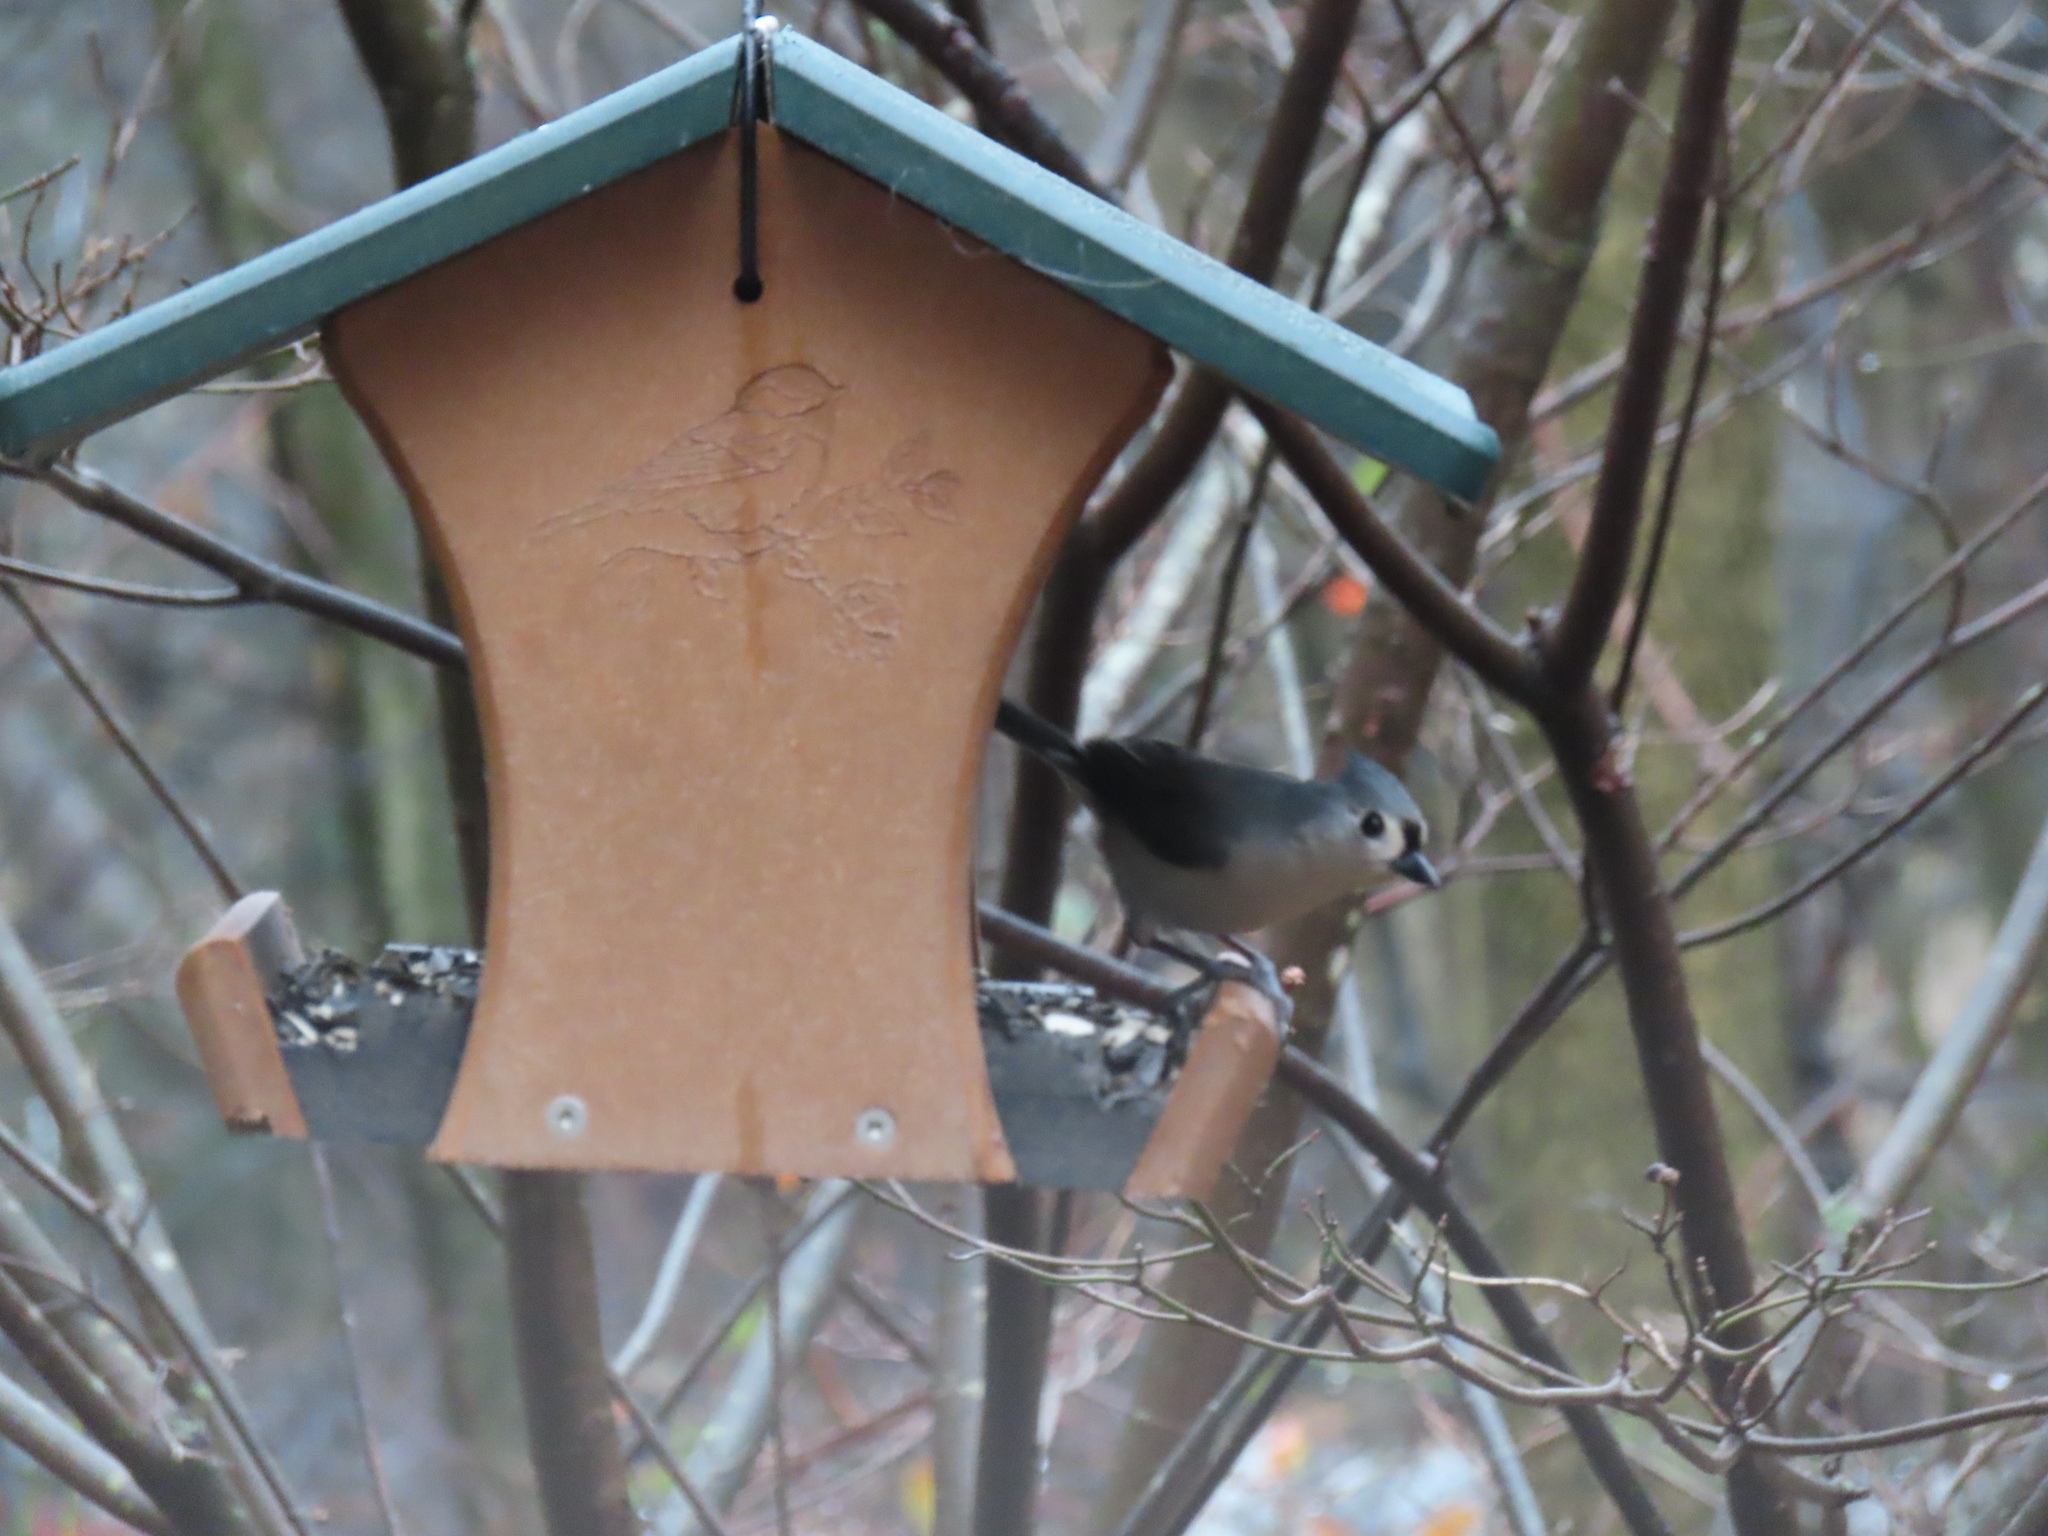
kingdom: Animalia
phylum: Chordata
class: Aves
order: Passeriformes
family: Paridae
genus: Baeolophus
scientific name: Baeolophus bicolor
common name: Tufted titmouse
